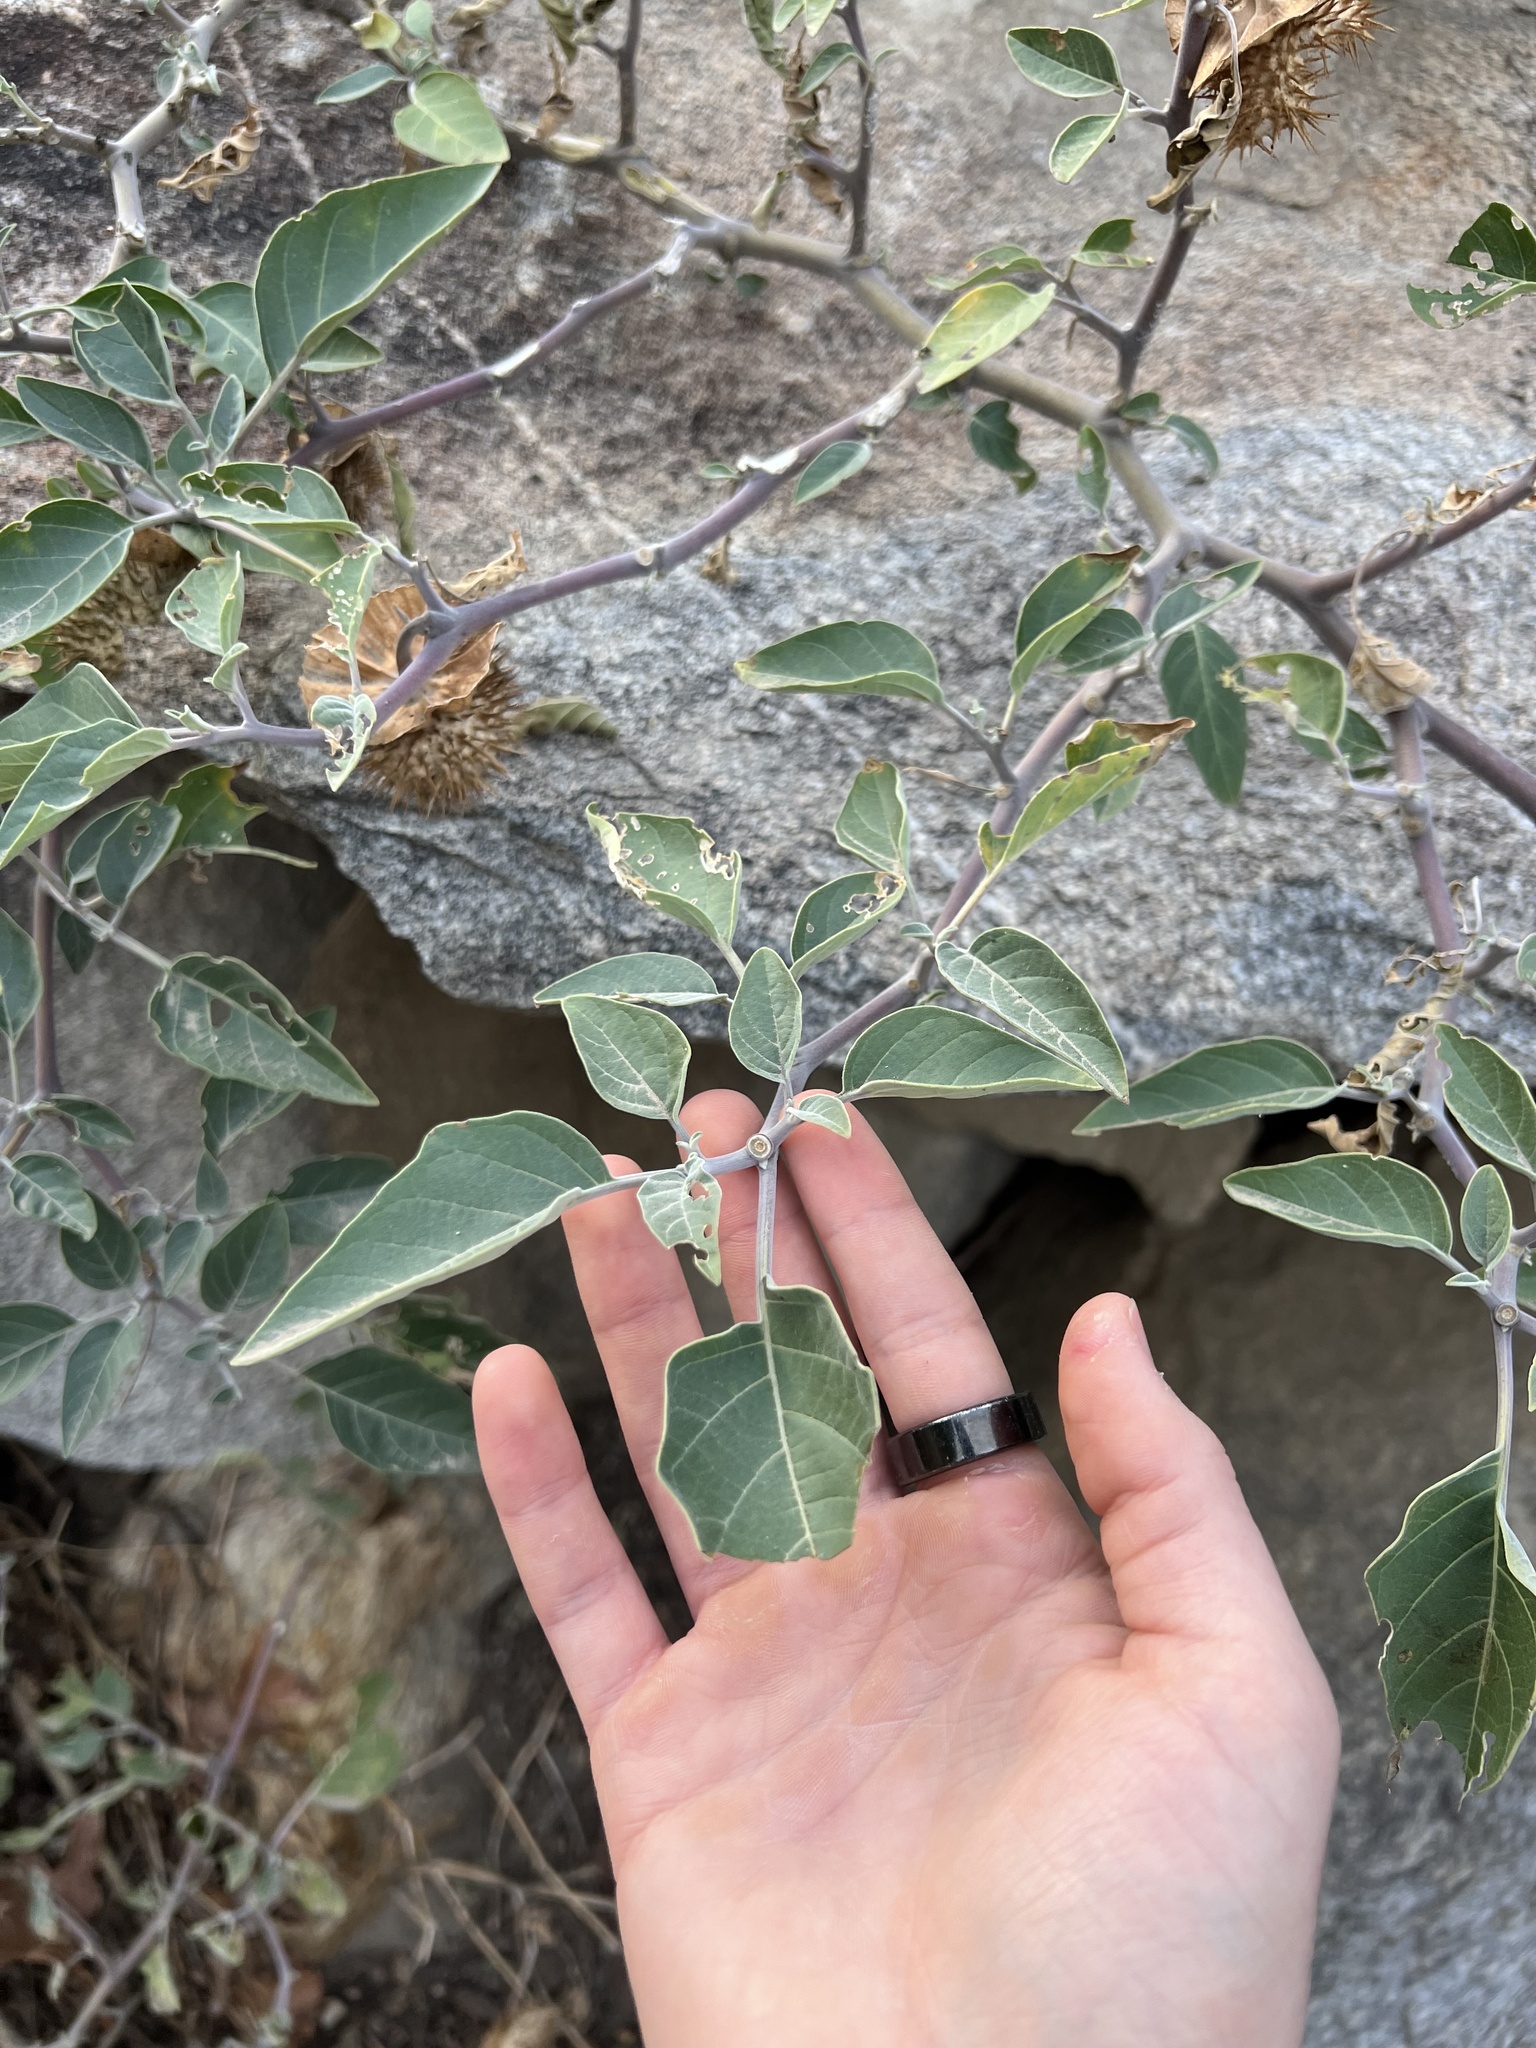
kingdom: Plantae
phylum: Tracheophyta
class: Magnoliopsida
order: Solanales
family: Solanaceae
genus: Datura
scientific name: Datura wrightii
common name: Sacred thorn-apple
